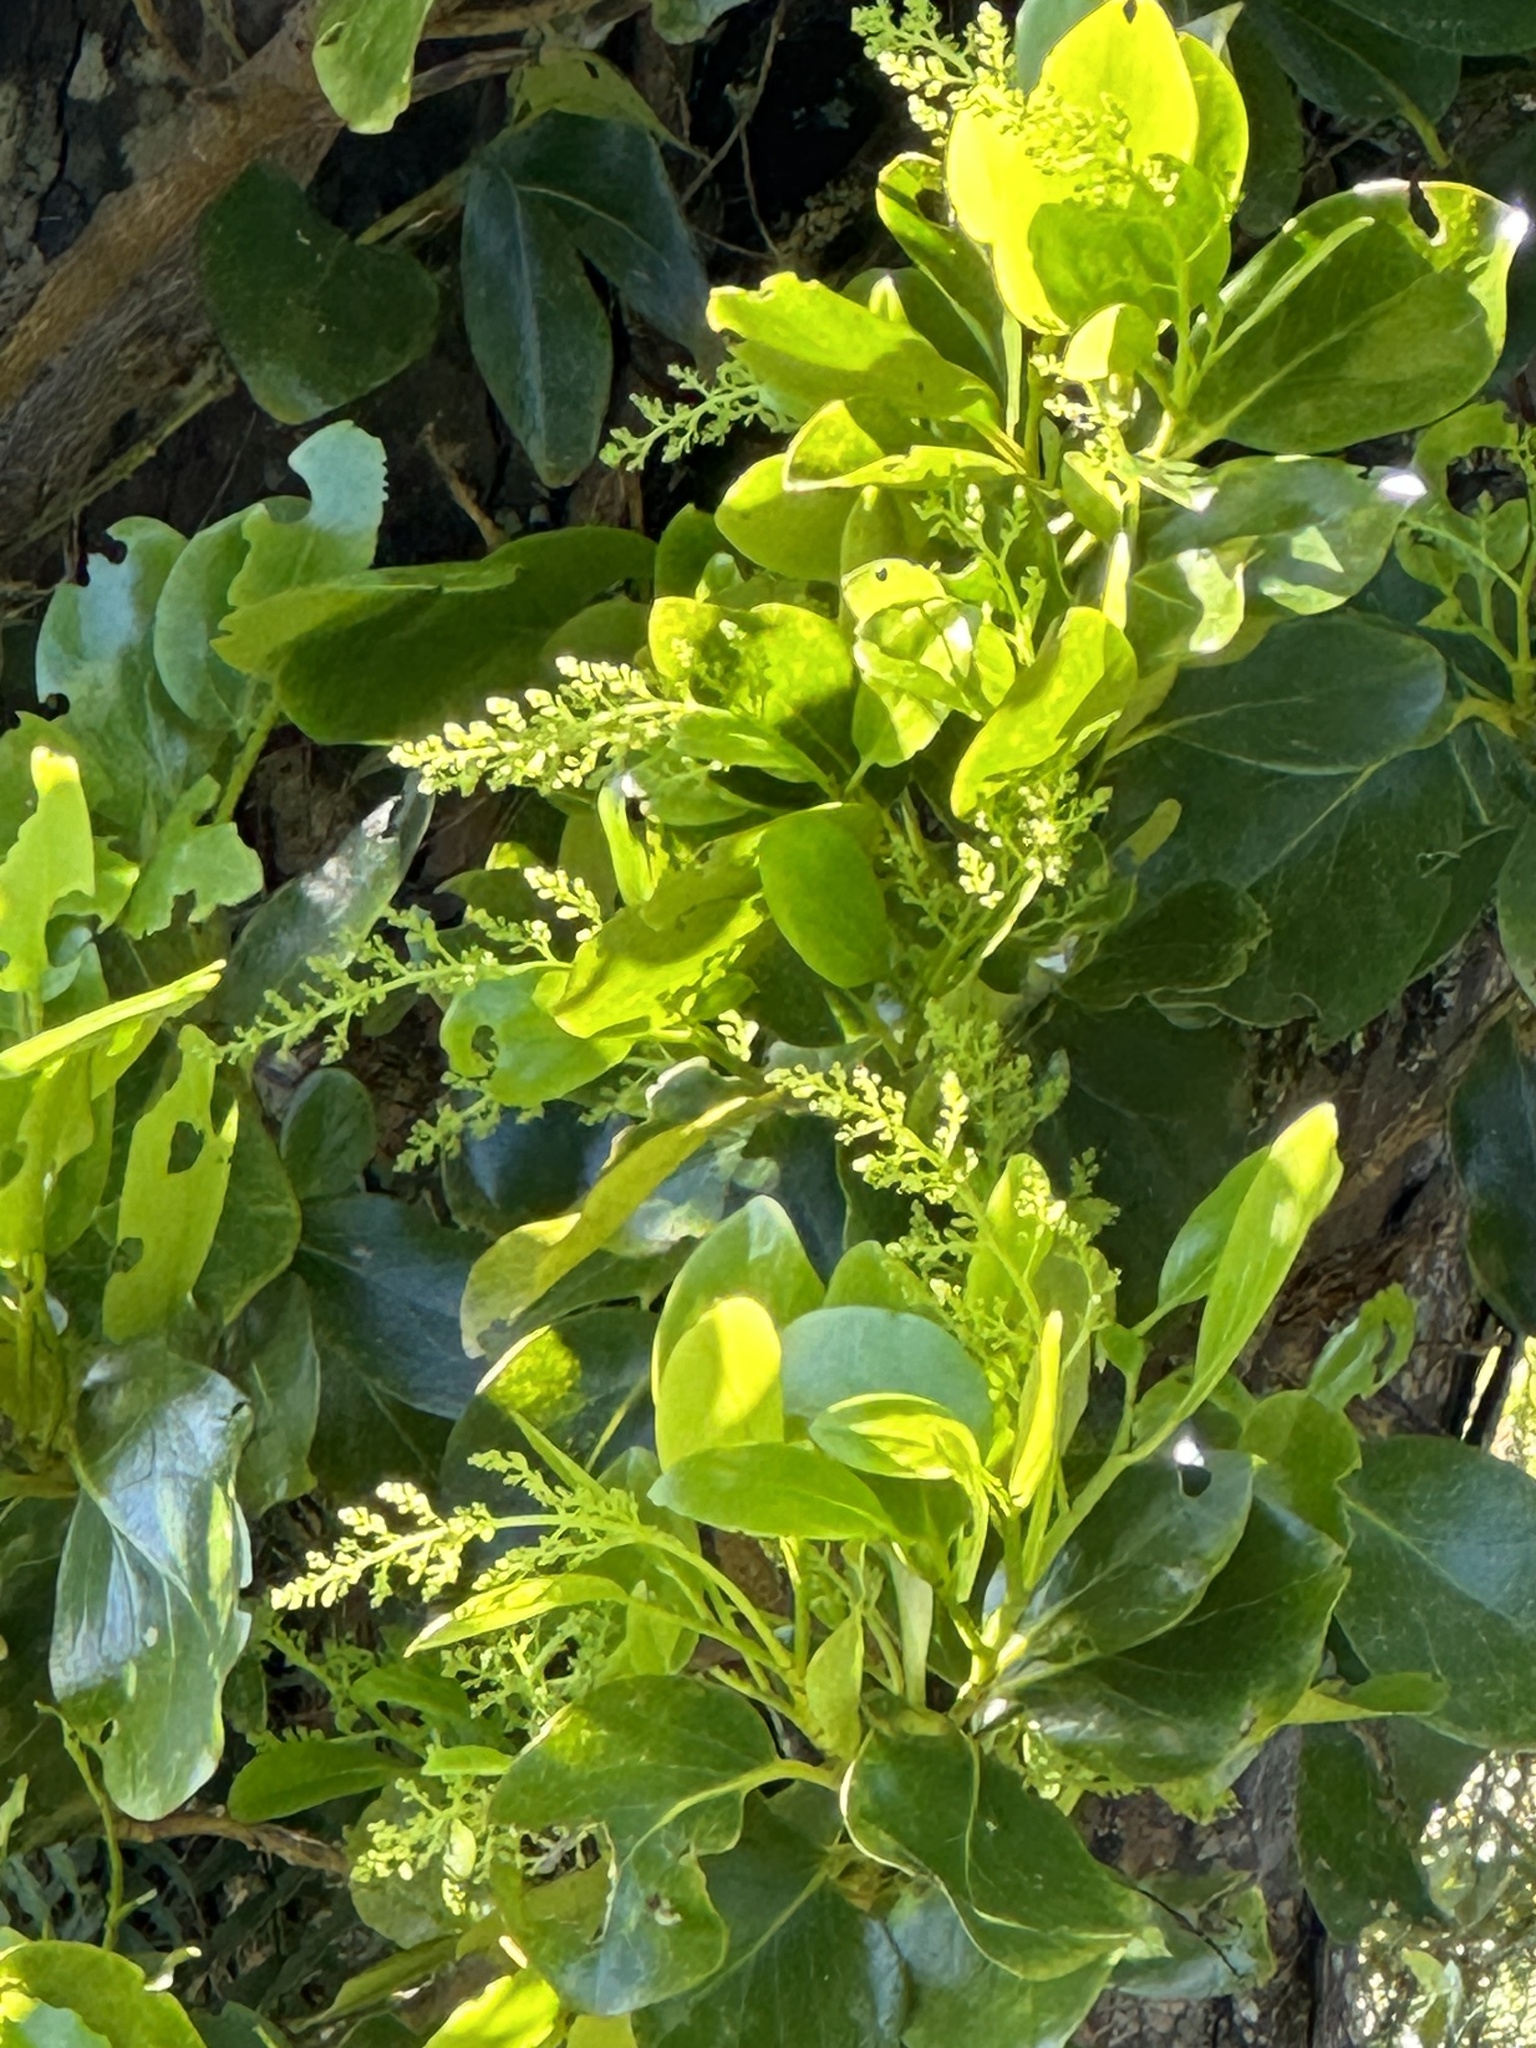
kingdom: Plantae
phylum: Tracheophyta
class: Magnoliopsida
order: Apiales
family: Griseliniaceae
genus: Griselinia
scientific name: Griselinia lucida
